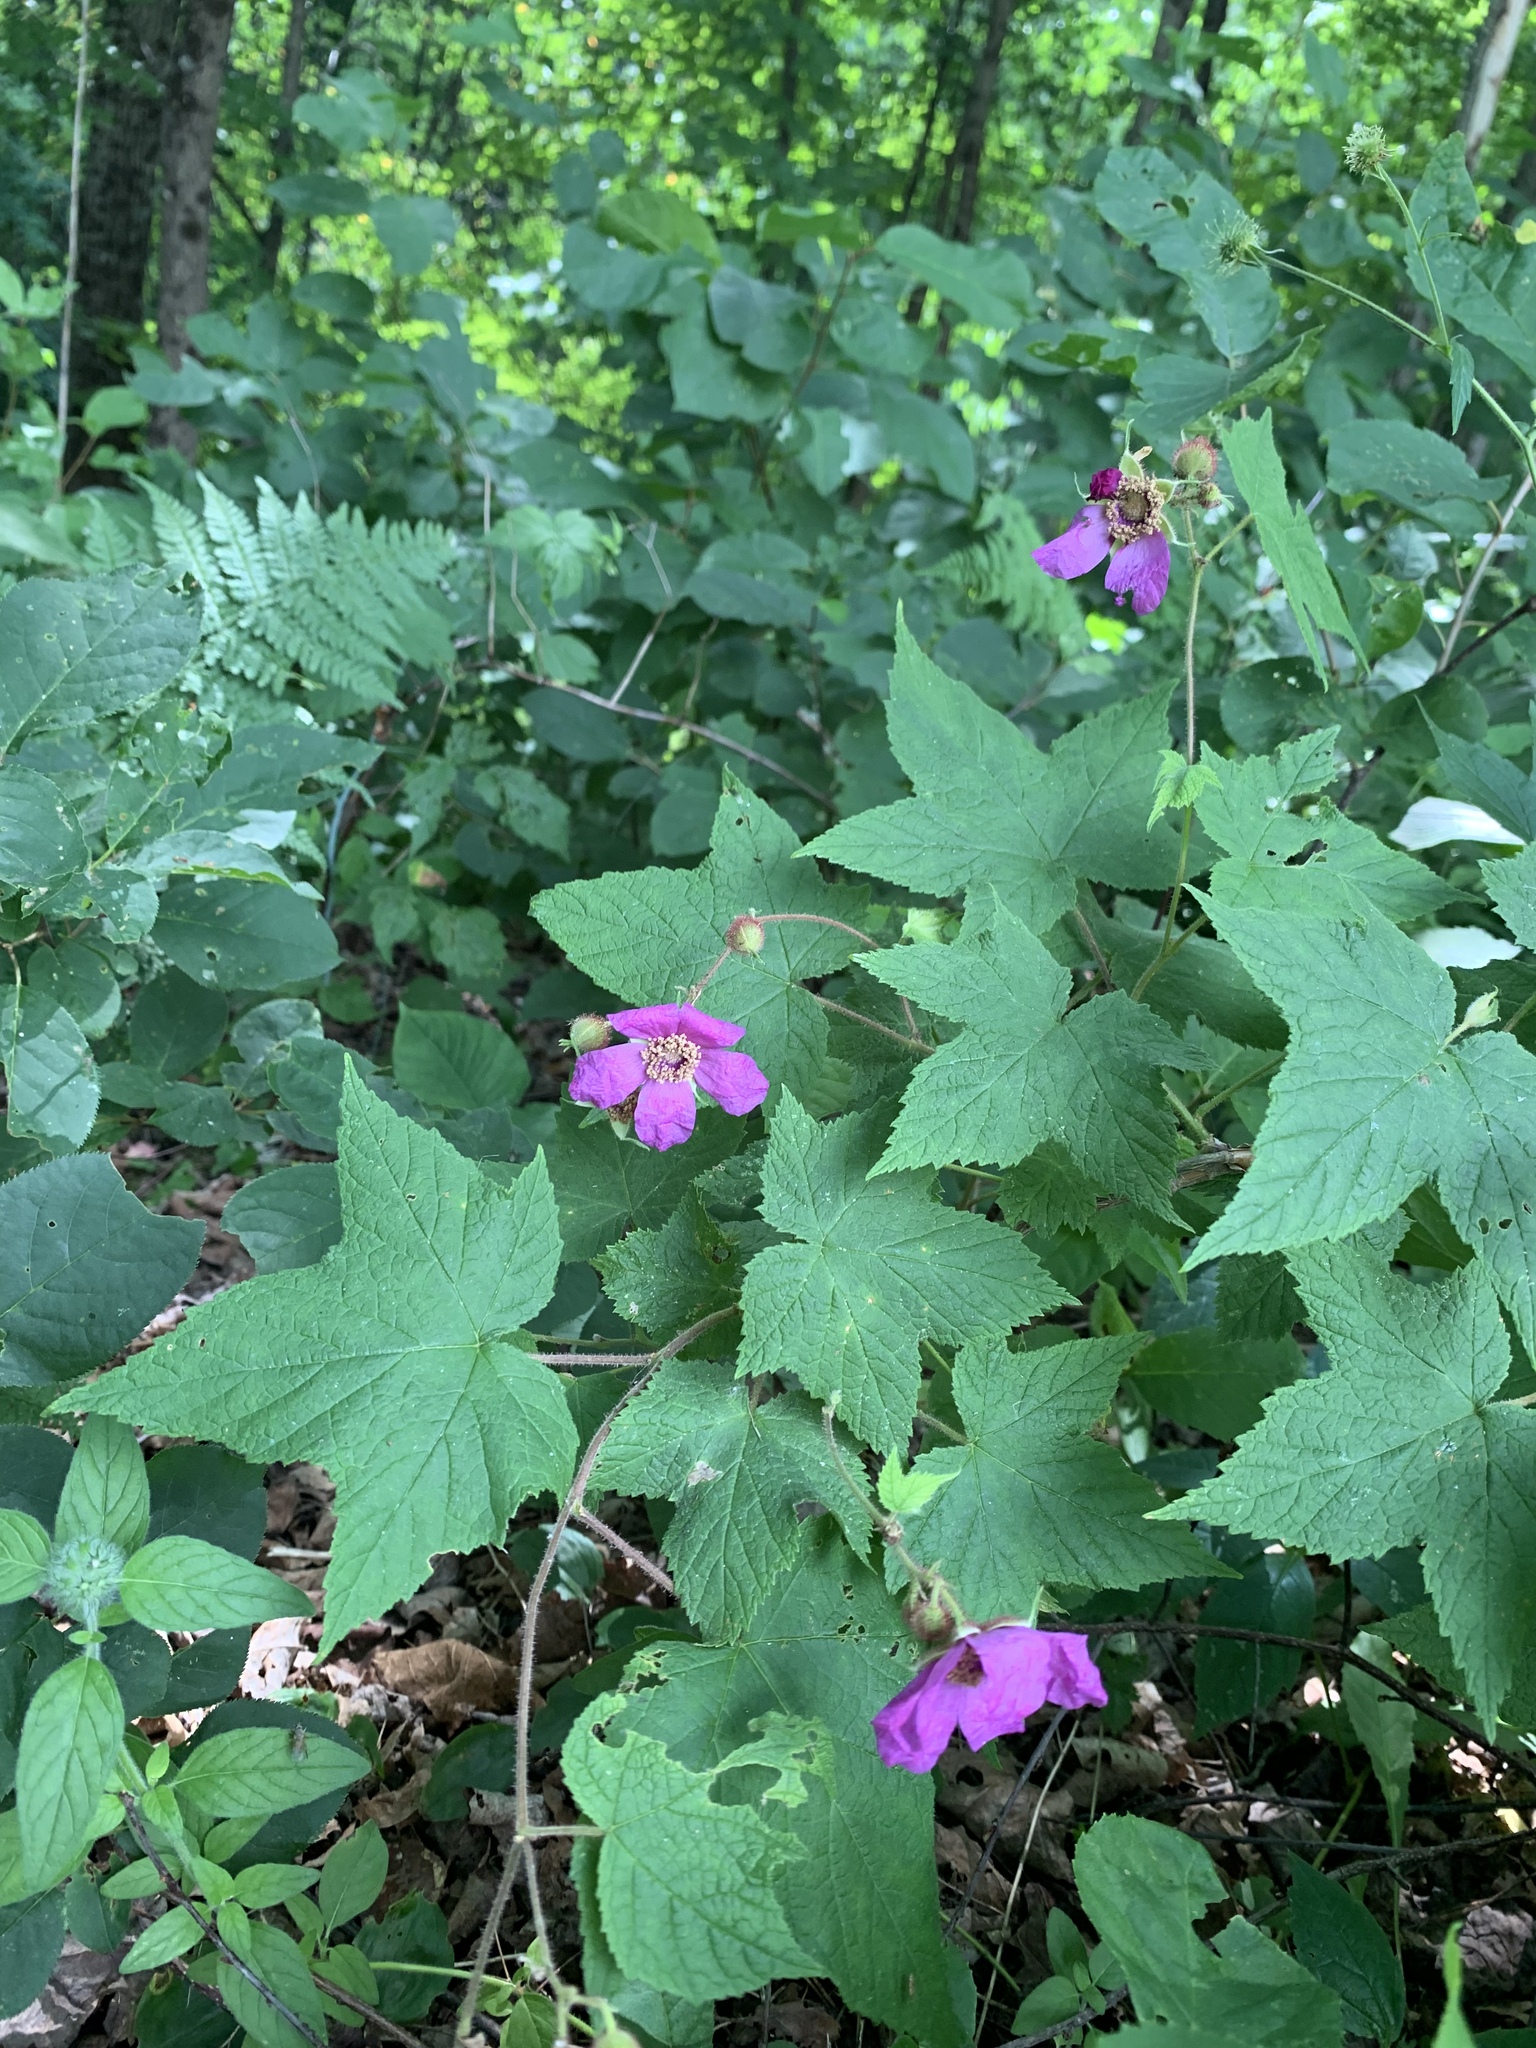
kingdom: Plantae
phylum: Tracheophyta
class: Magnoliopsida
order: Rosales
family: Rosaceae
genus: Rubus
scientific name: Rubus odoratus
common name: Purple-flowered raspberry
